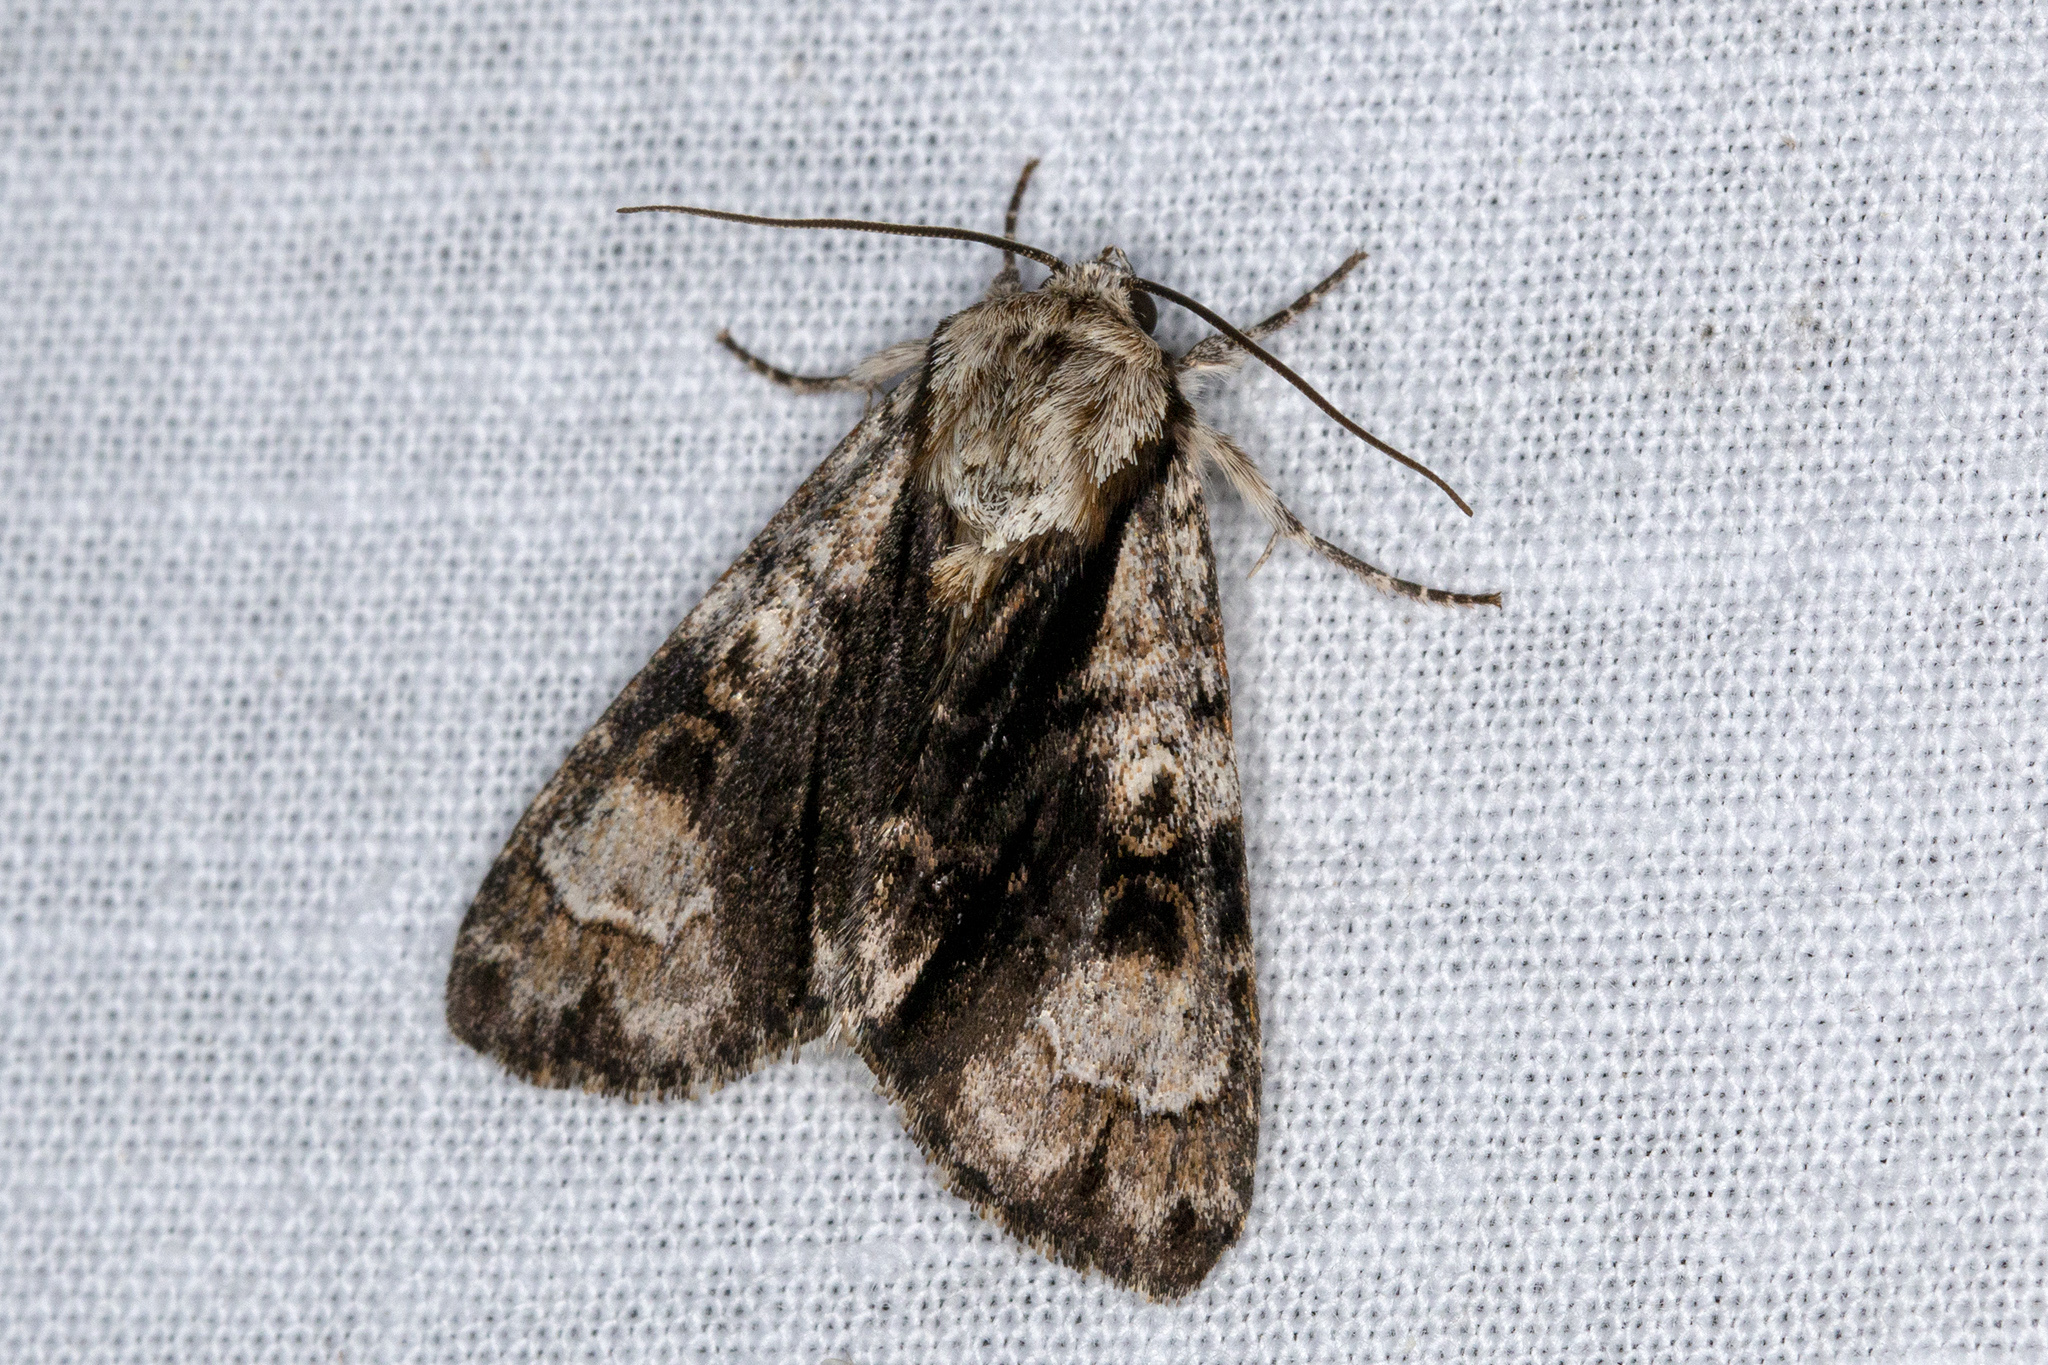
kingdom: Animalia
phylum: Arthropoda
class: Insecta
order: Lepidoptera
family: Noctuidae
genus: Acronicta
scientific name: Acronicta alni
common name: Alder moth
